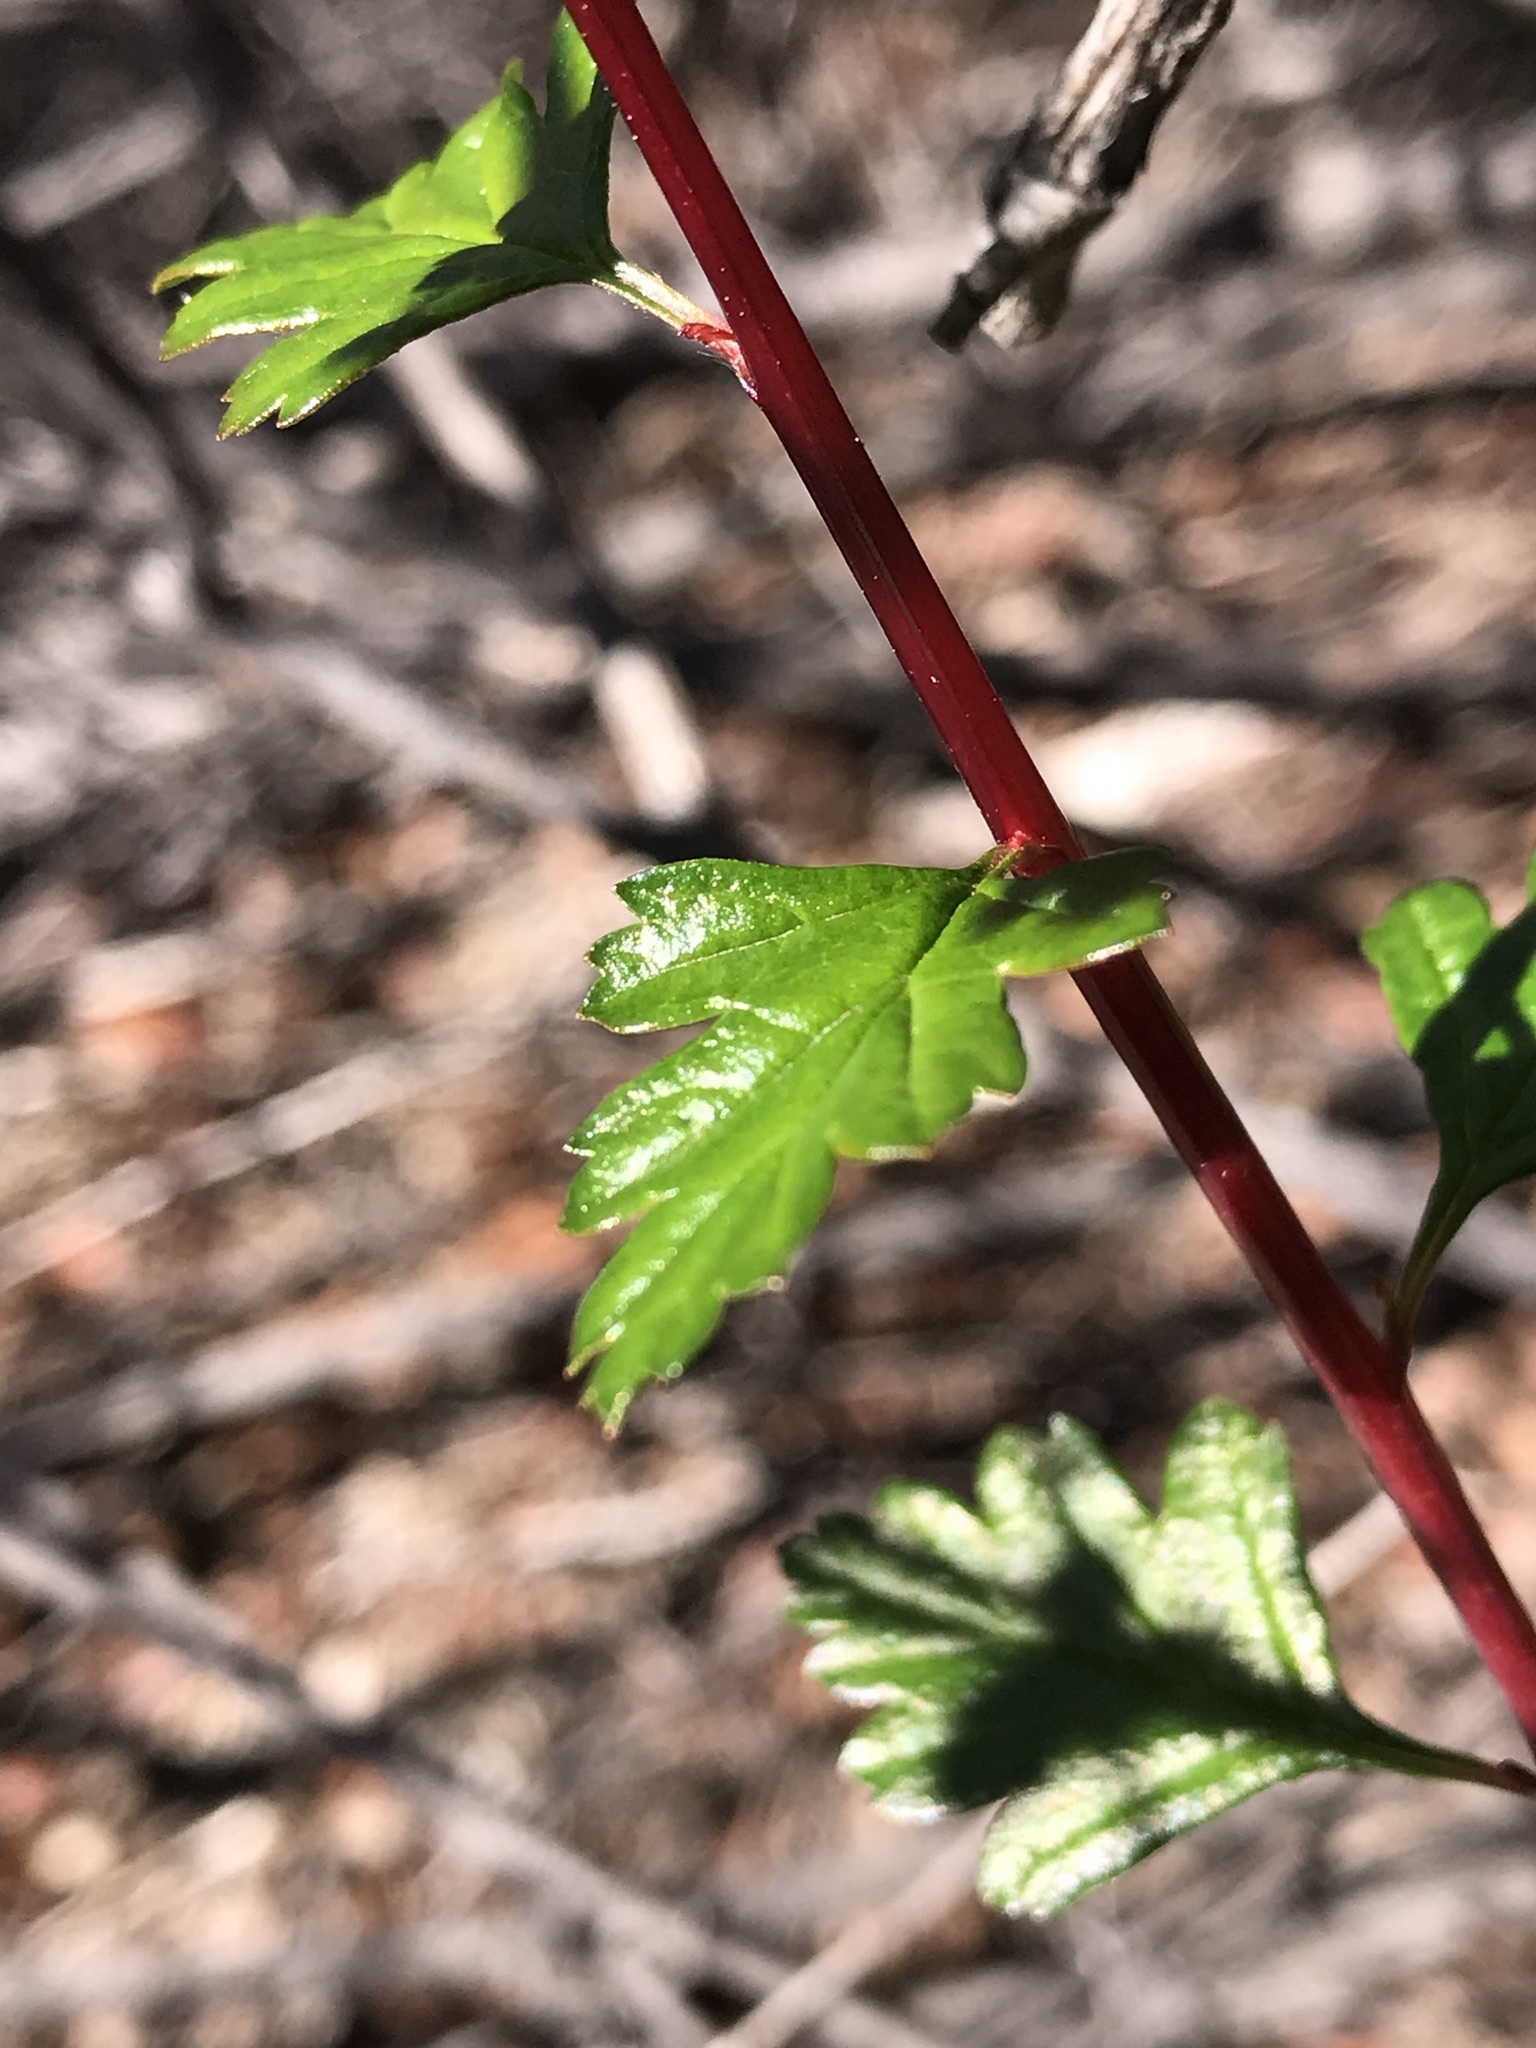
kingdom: Plantae
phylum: Tracheophyta
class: Magnoliopsida
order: Rosales
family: Rosaceae
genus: Holodiscus
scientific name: Holodiscus discolor
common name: Oceanspray
